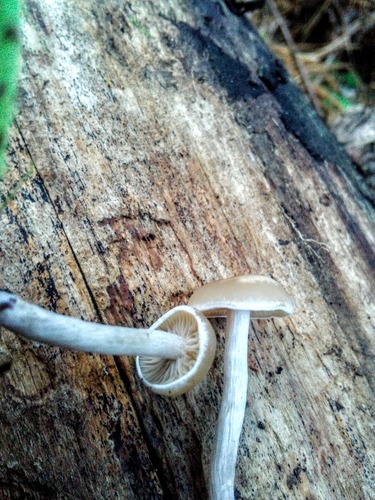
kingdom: Fungi
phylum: Basidiomycota
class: Agaricomycetes
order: Agaricales
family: Tricholomataceae
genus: Clitocybe
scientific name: Clitocybe
